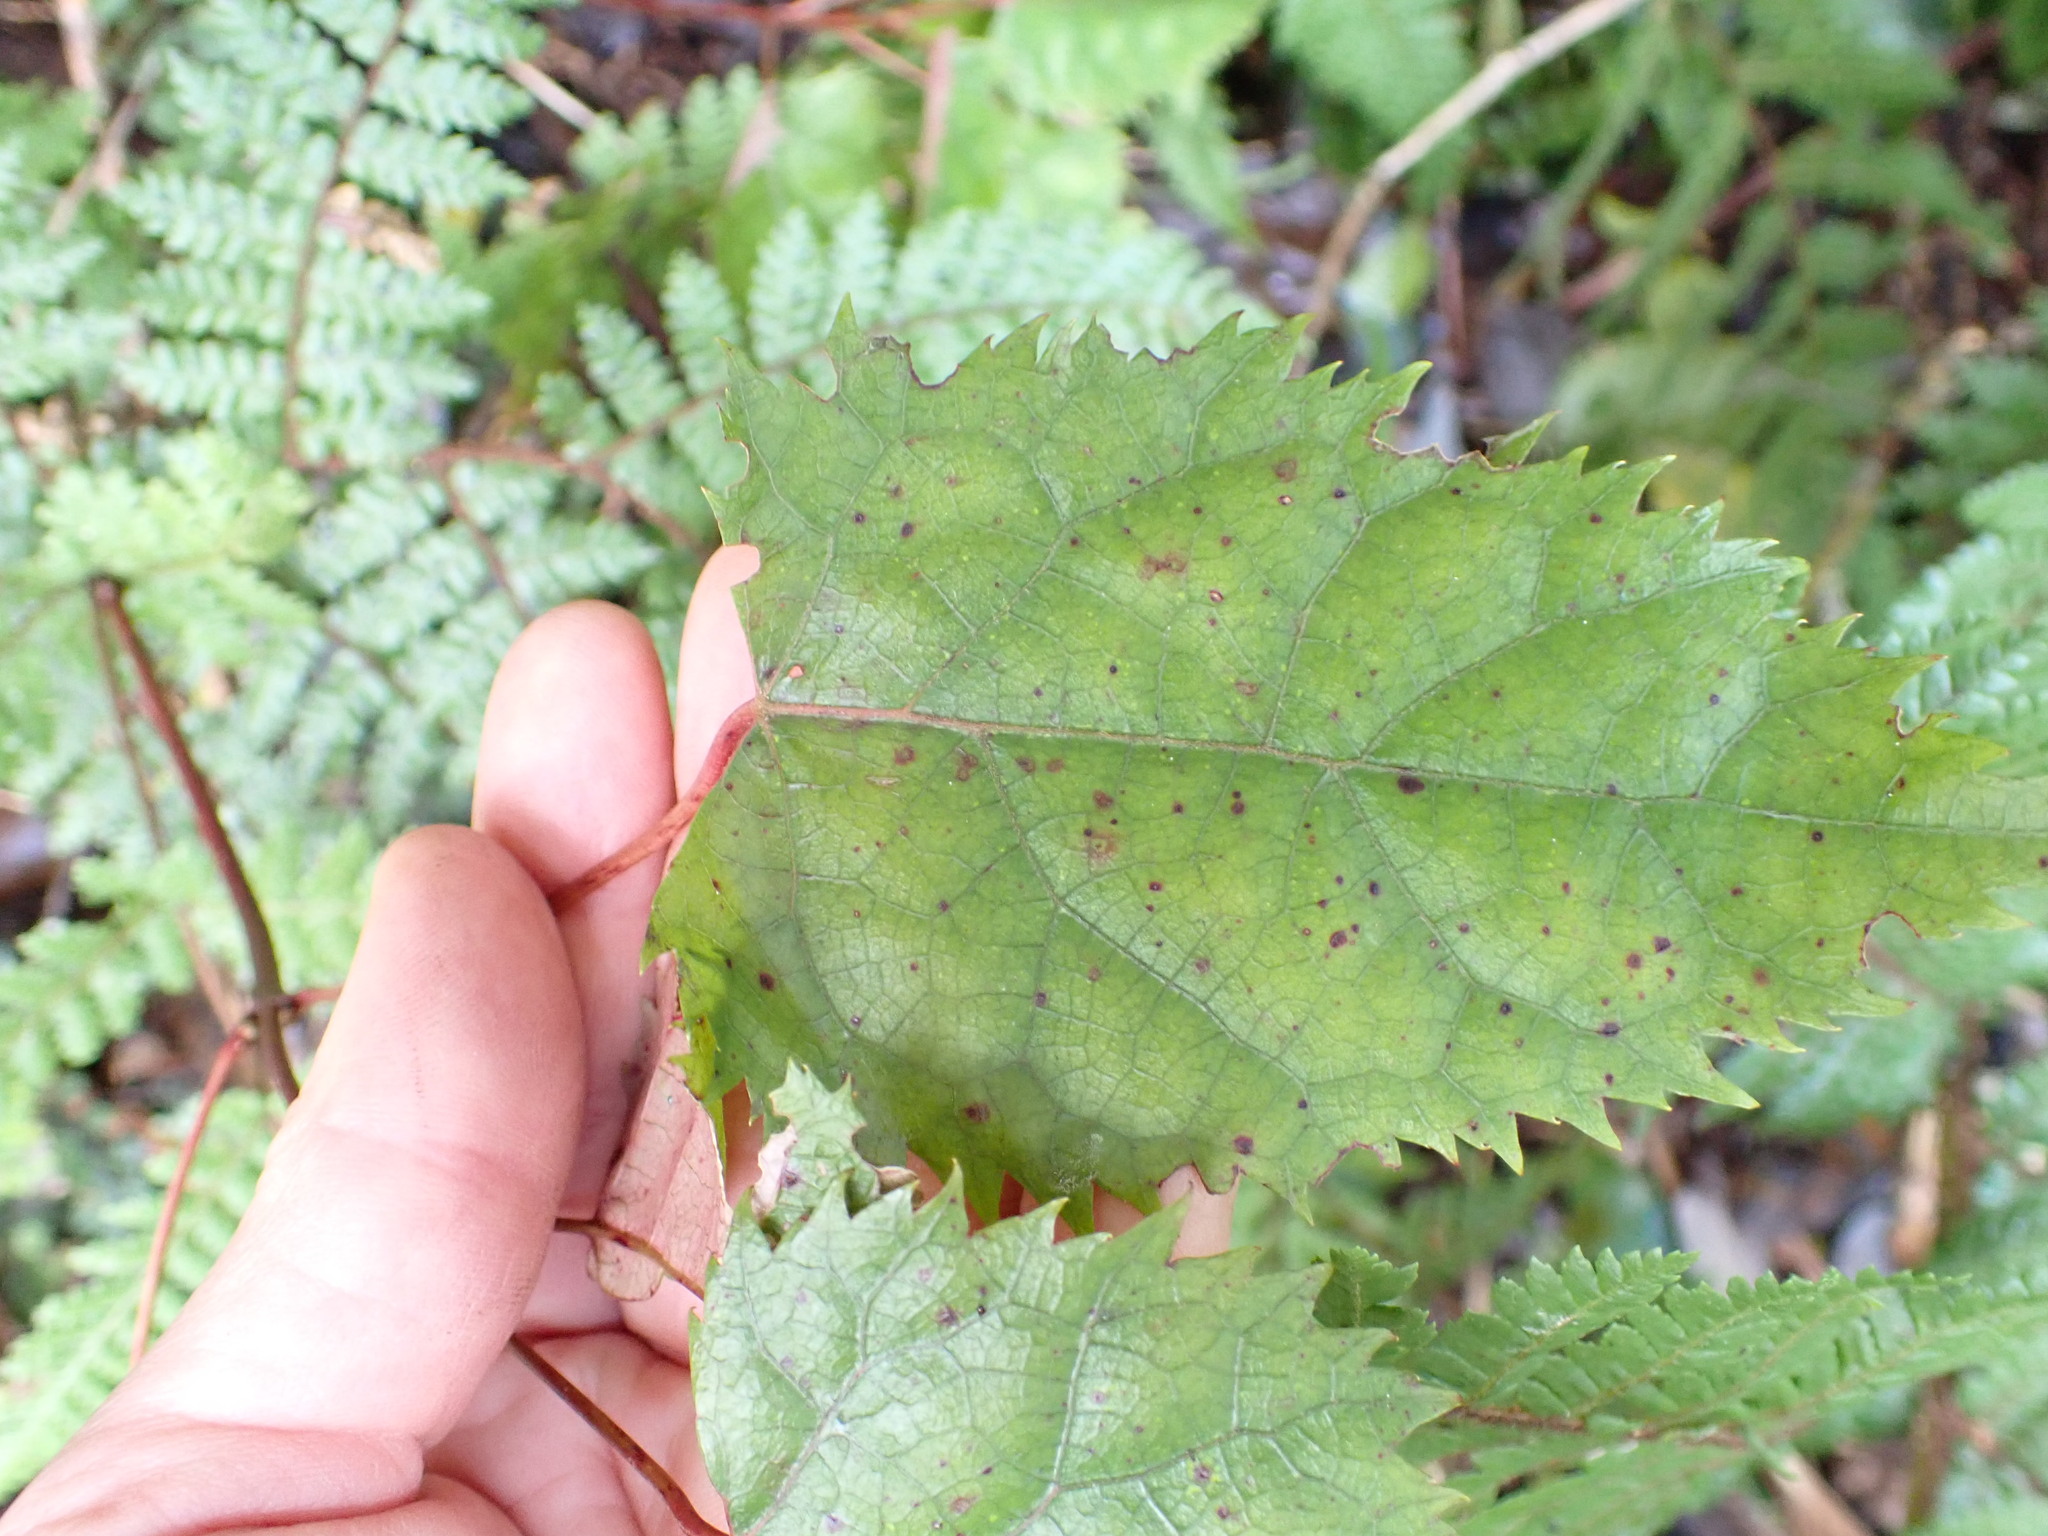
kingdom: Plantae
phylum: Tracheophyta
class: Magnoliopsida
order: Oxalidales
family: Elaeocarpaceae
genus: Aristotelia
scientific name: Aristotelia serrata
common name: New zealand wineberry
